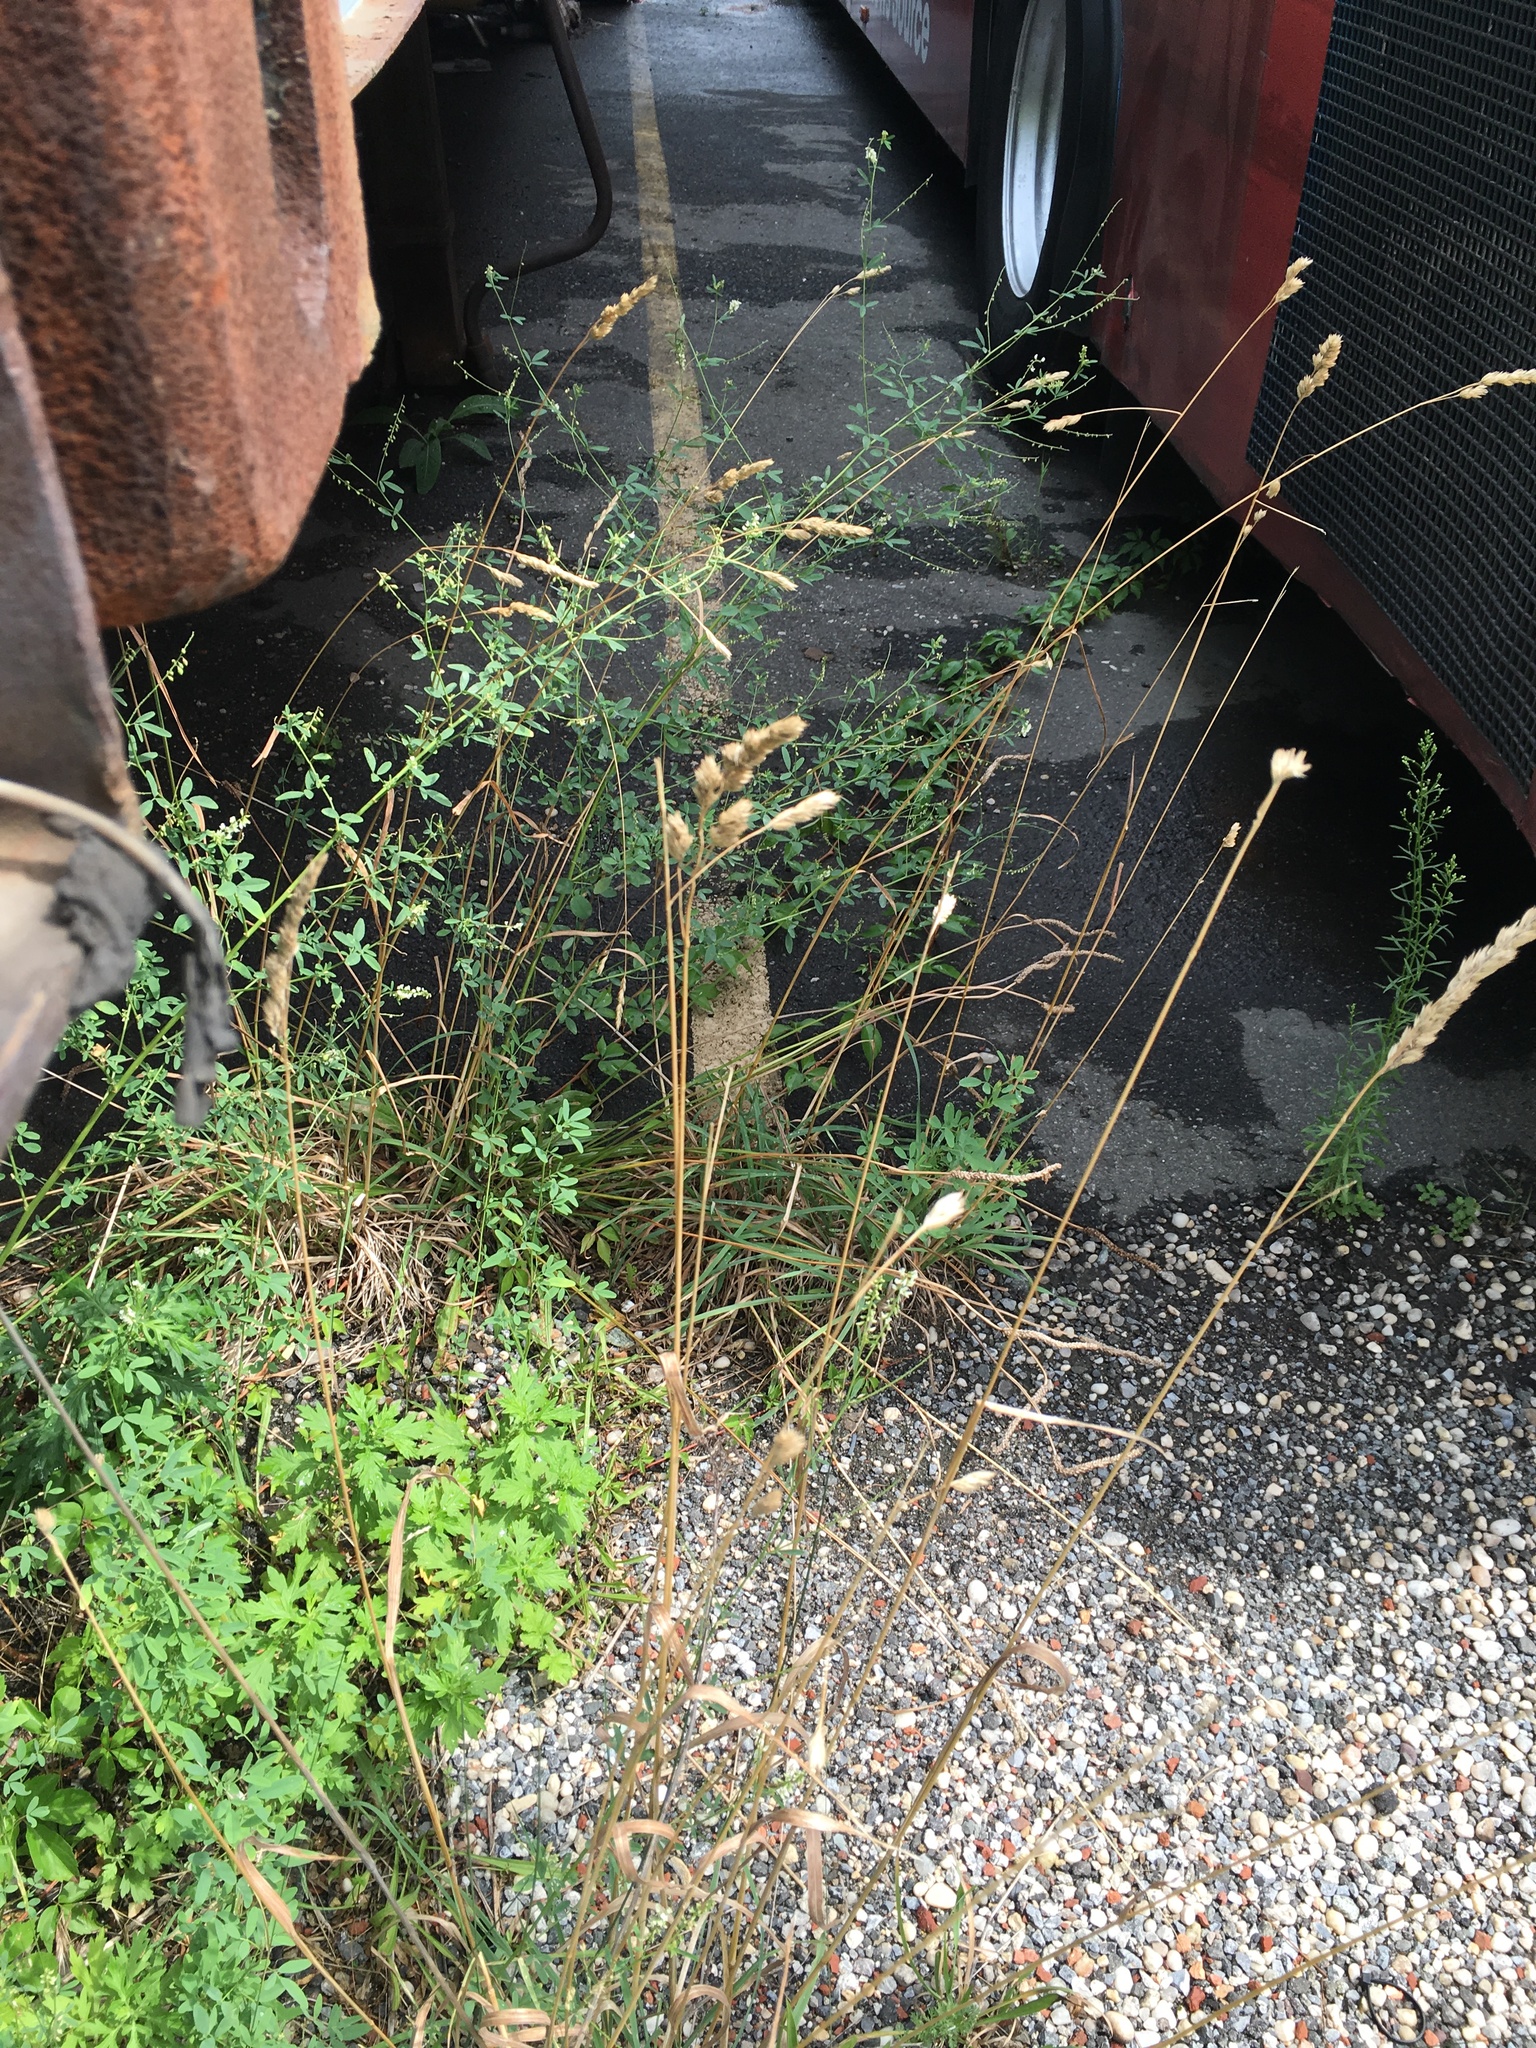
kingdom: Plantae
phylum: Tracheophyta
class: Liliopsida
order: Poales
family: Poaceae
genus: Dactylis
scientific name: Dactylis glomerata
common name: Orchardgrass
